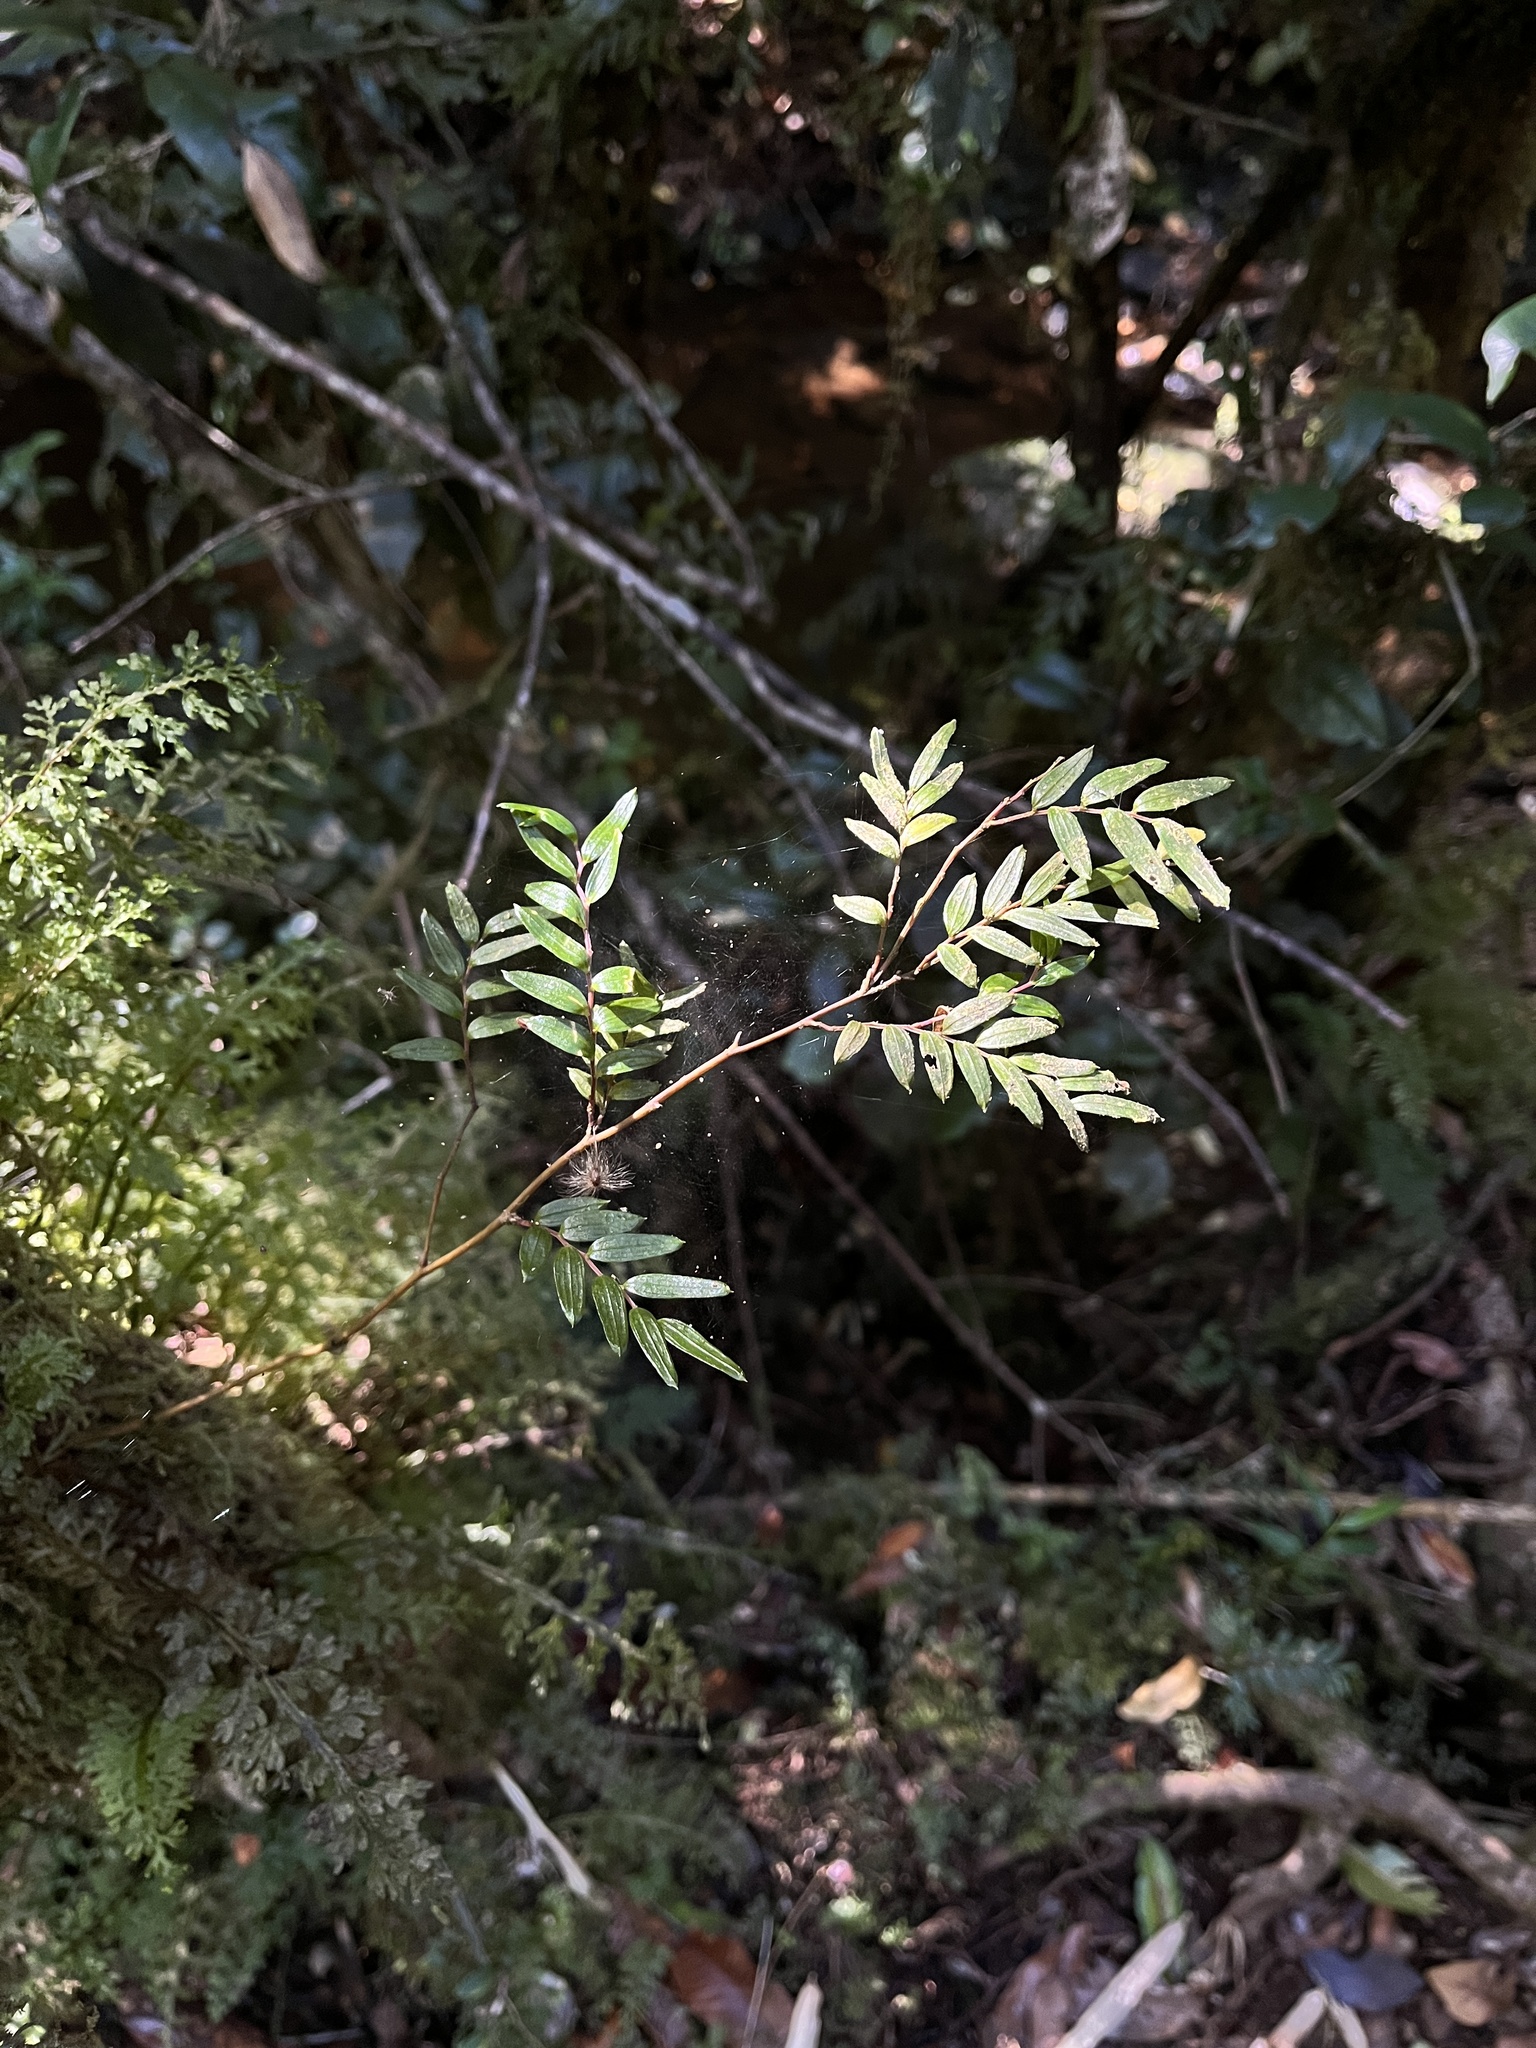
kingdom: Plantae
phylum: Tracheophyta
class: Liliopsida
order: Liliales
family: Alstroemeriaceae
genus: Luzuriaga
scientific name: Luzuriaga polyphylla
